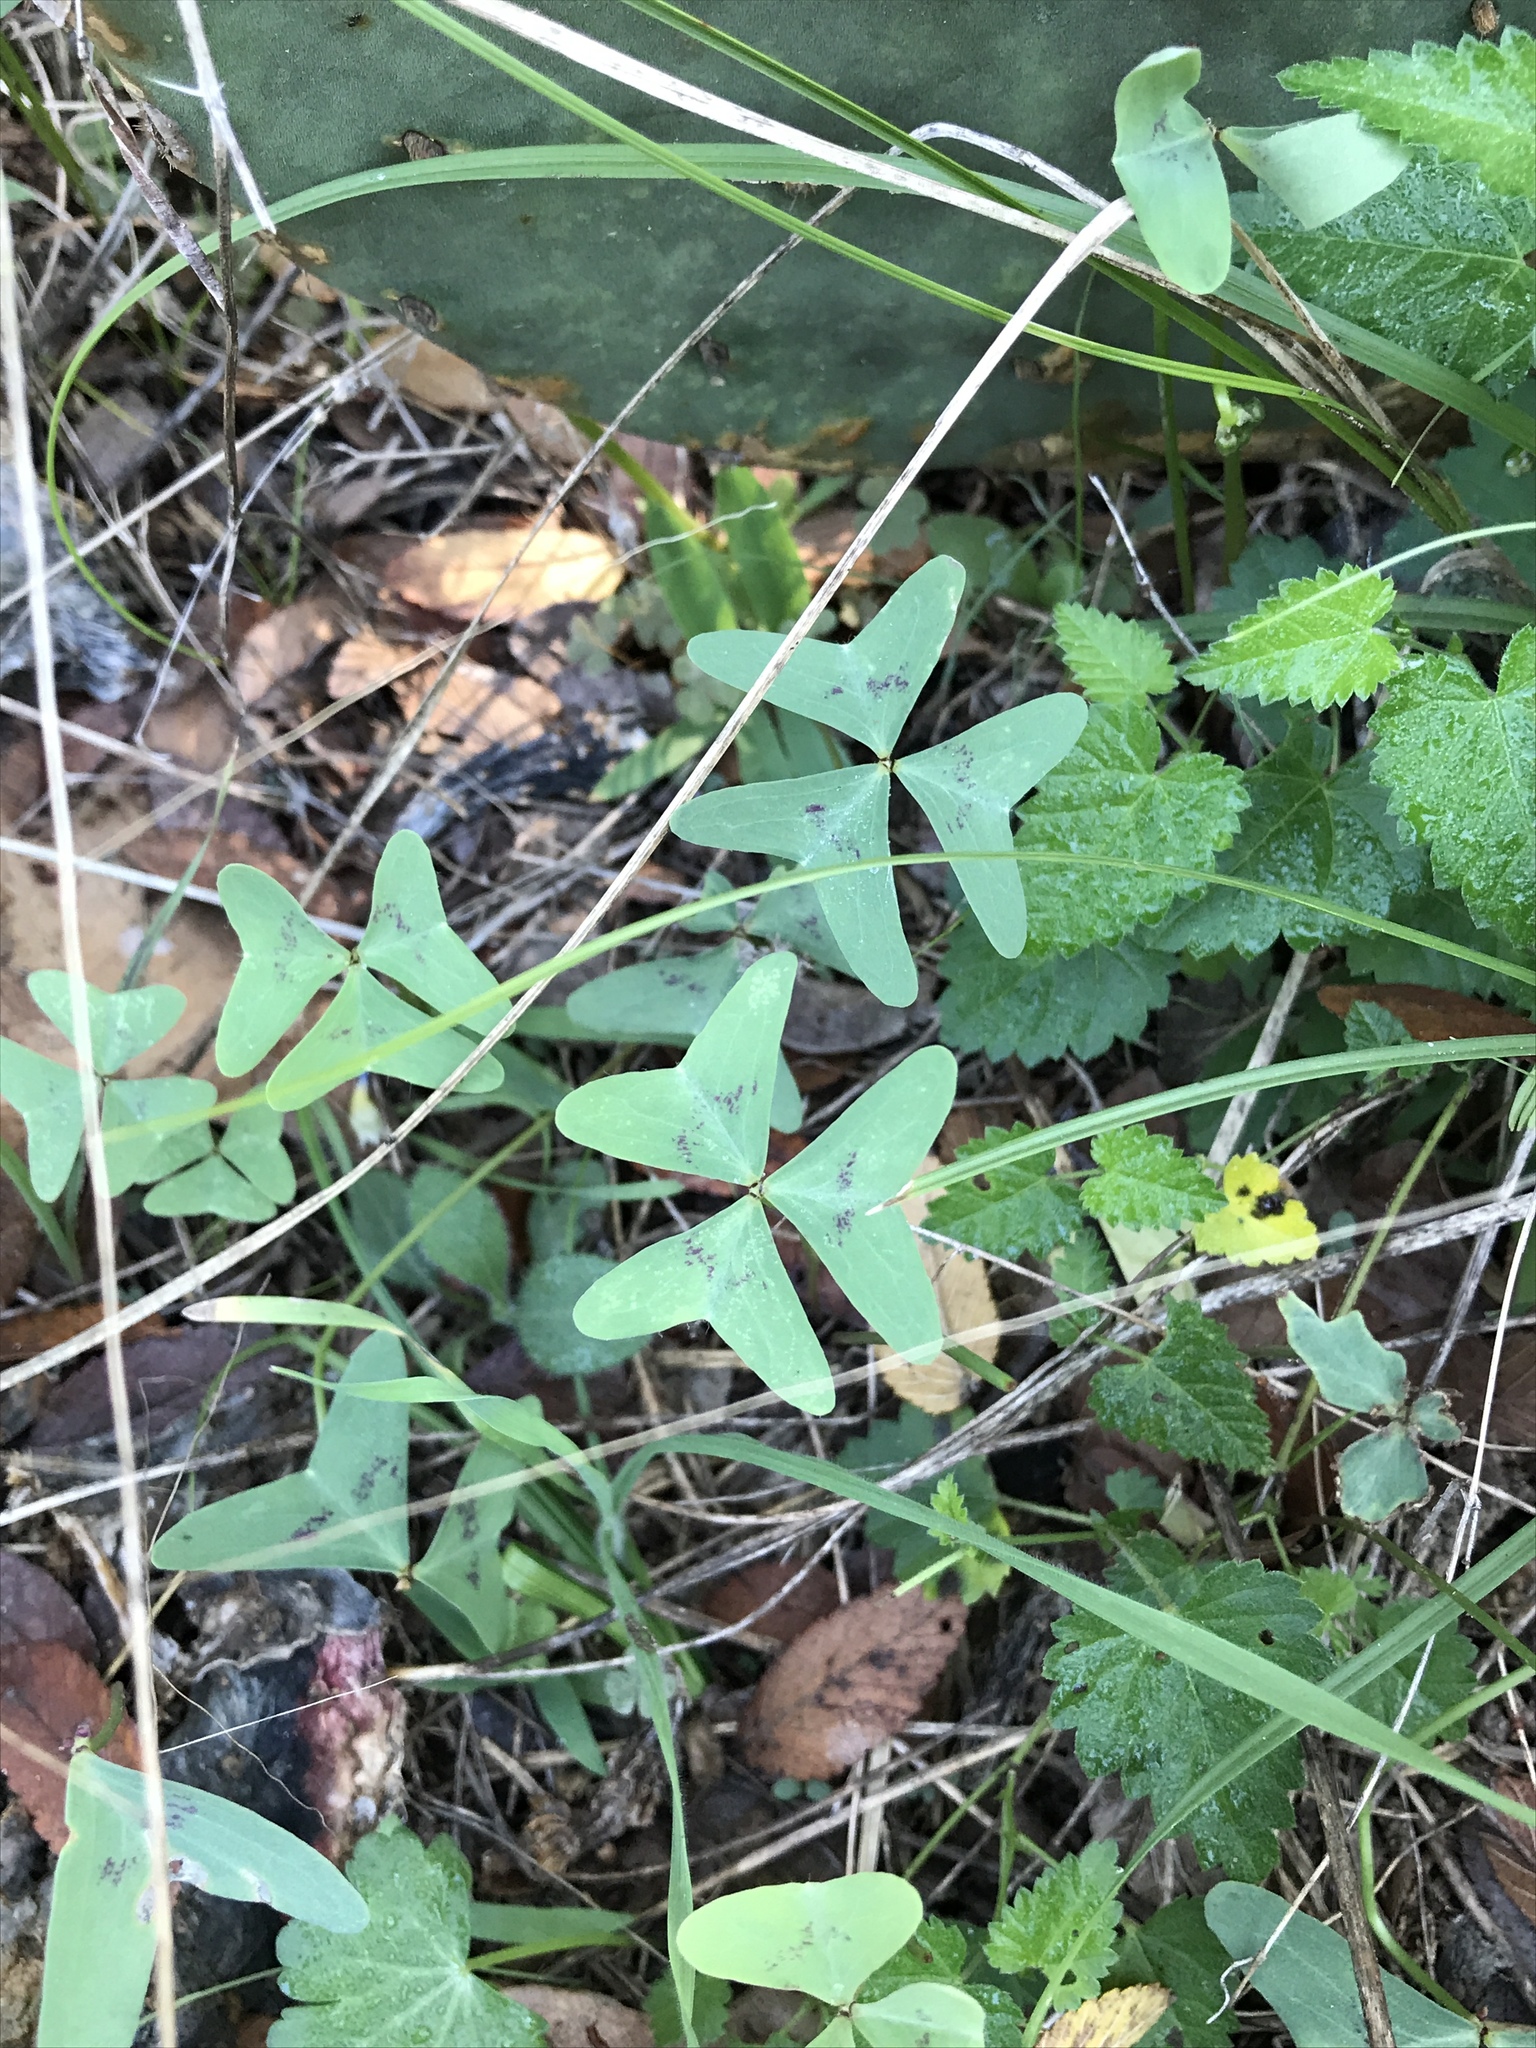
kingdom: Plantae
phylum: Tracheophyta
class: Magnoliopsida
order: Oxalidales
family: Oxalidaceae
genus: Oxalis
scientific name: Oxalis drummondii
